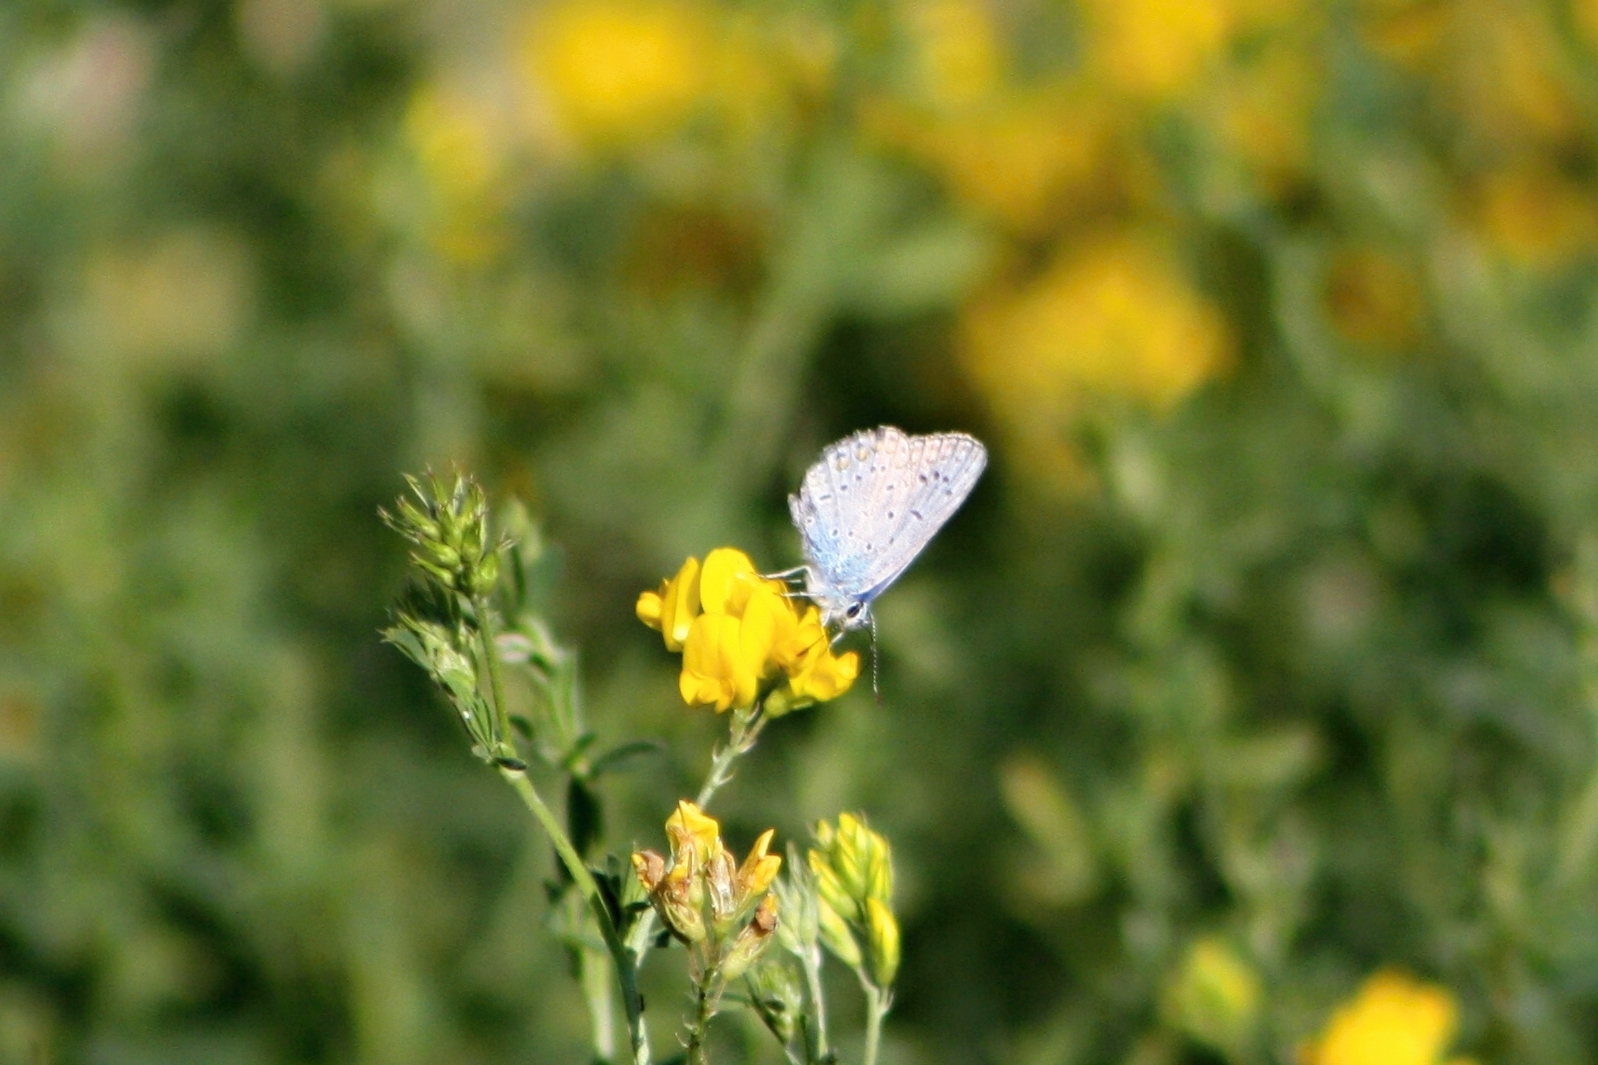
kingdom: Animalia
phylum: Arthropoda
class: Insecta
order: Lepidoptera
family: Lycaenidae
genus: Polyommatus
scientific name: Polyommatus icarus
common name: Common blue
